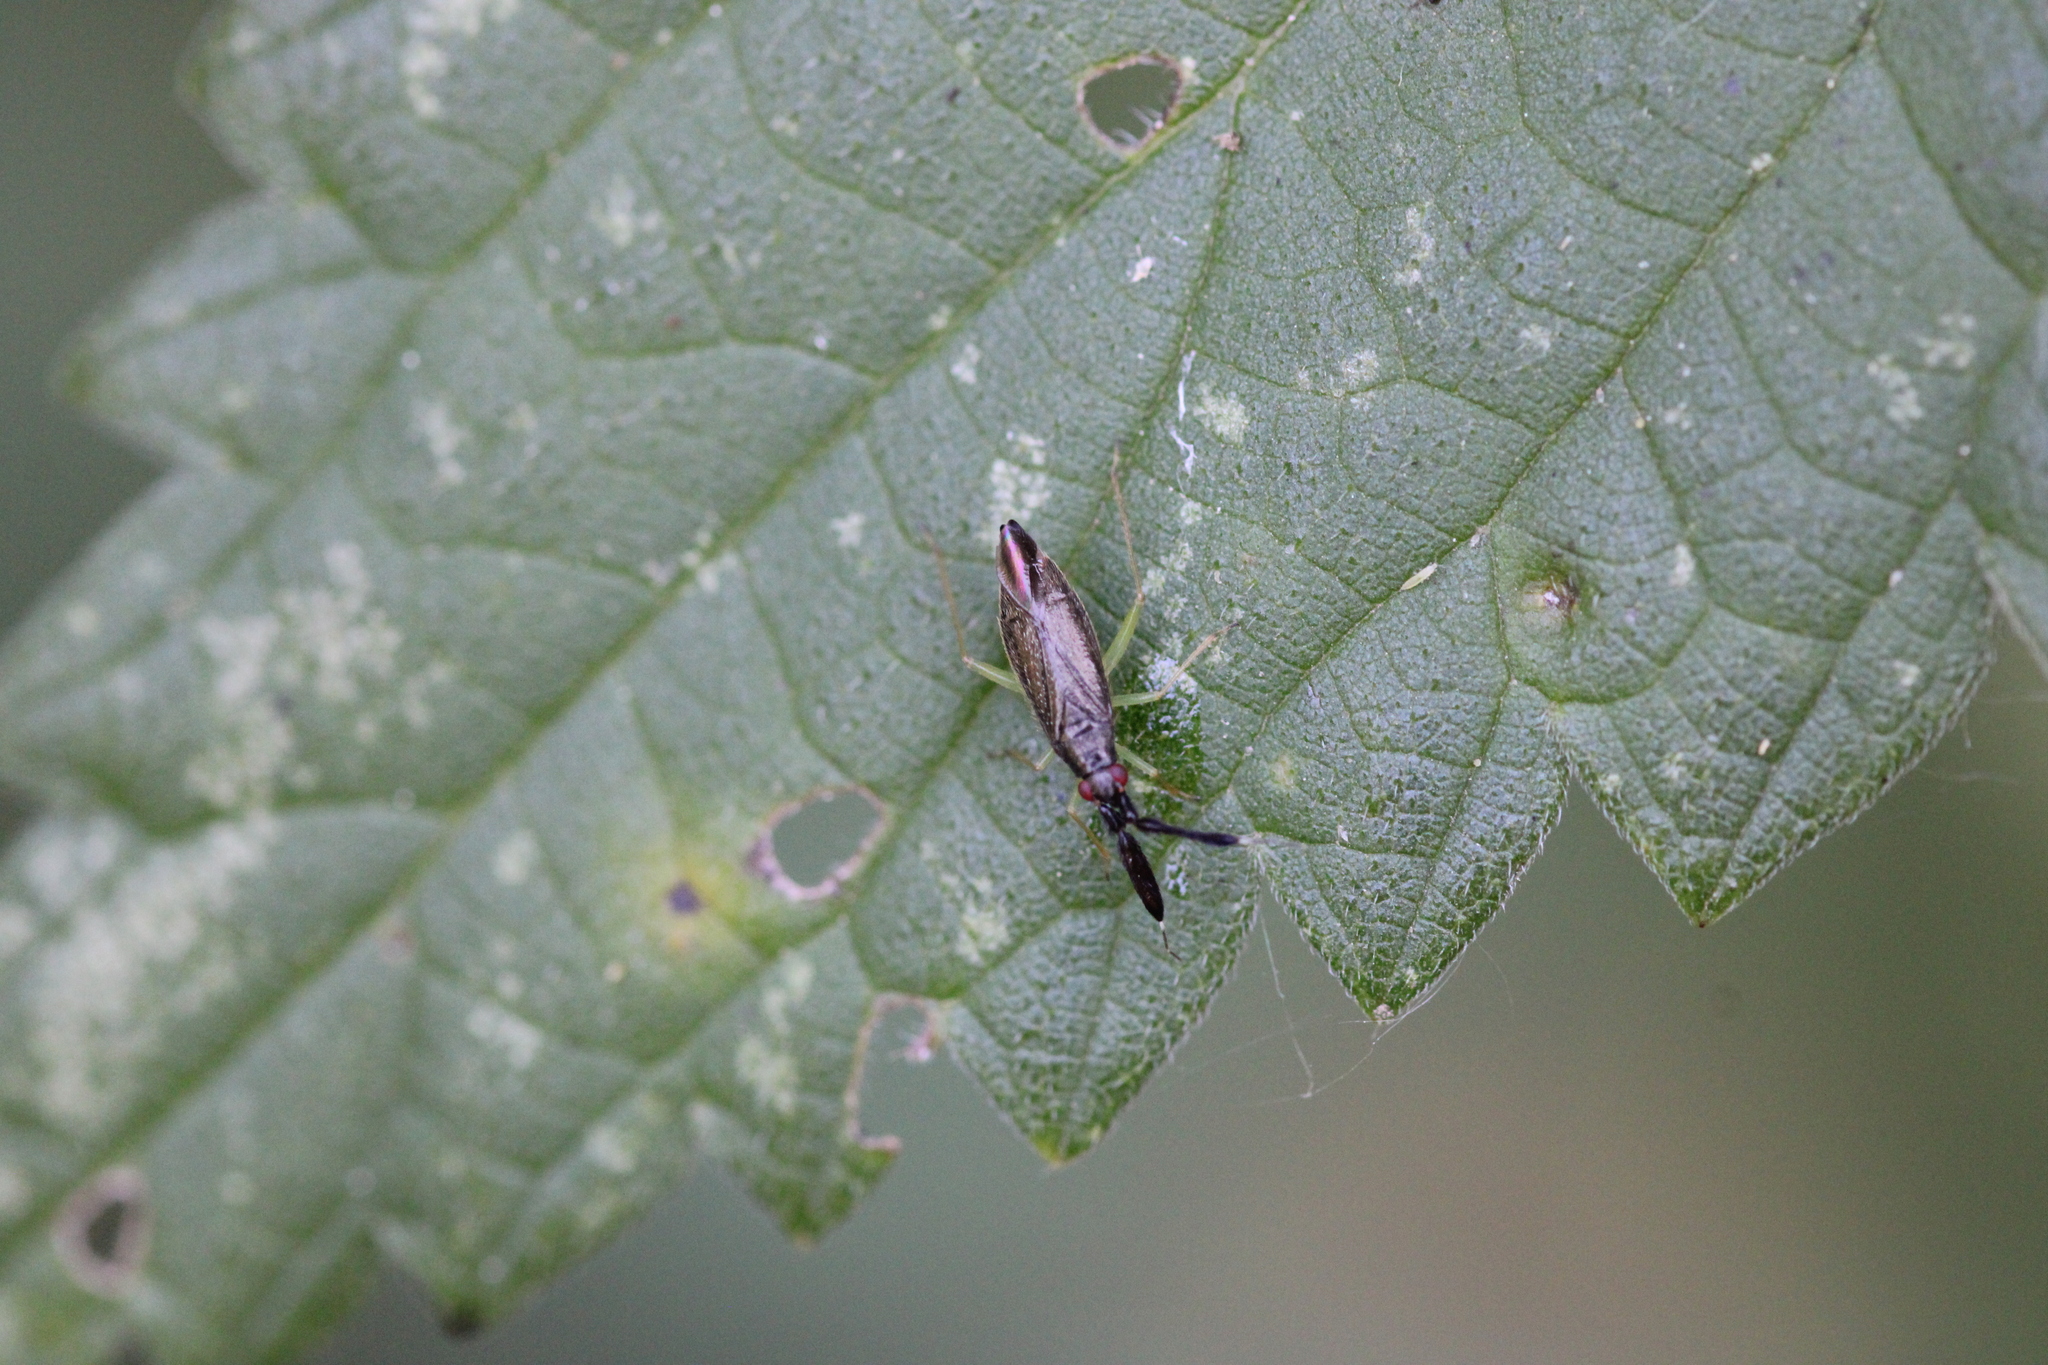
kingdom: Animalia
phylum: Arthropoda
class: Insecta
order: Hemiptera
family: Miridae
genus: Heterotoma
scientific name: Heterotoma planicornis
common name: Plant bug
